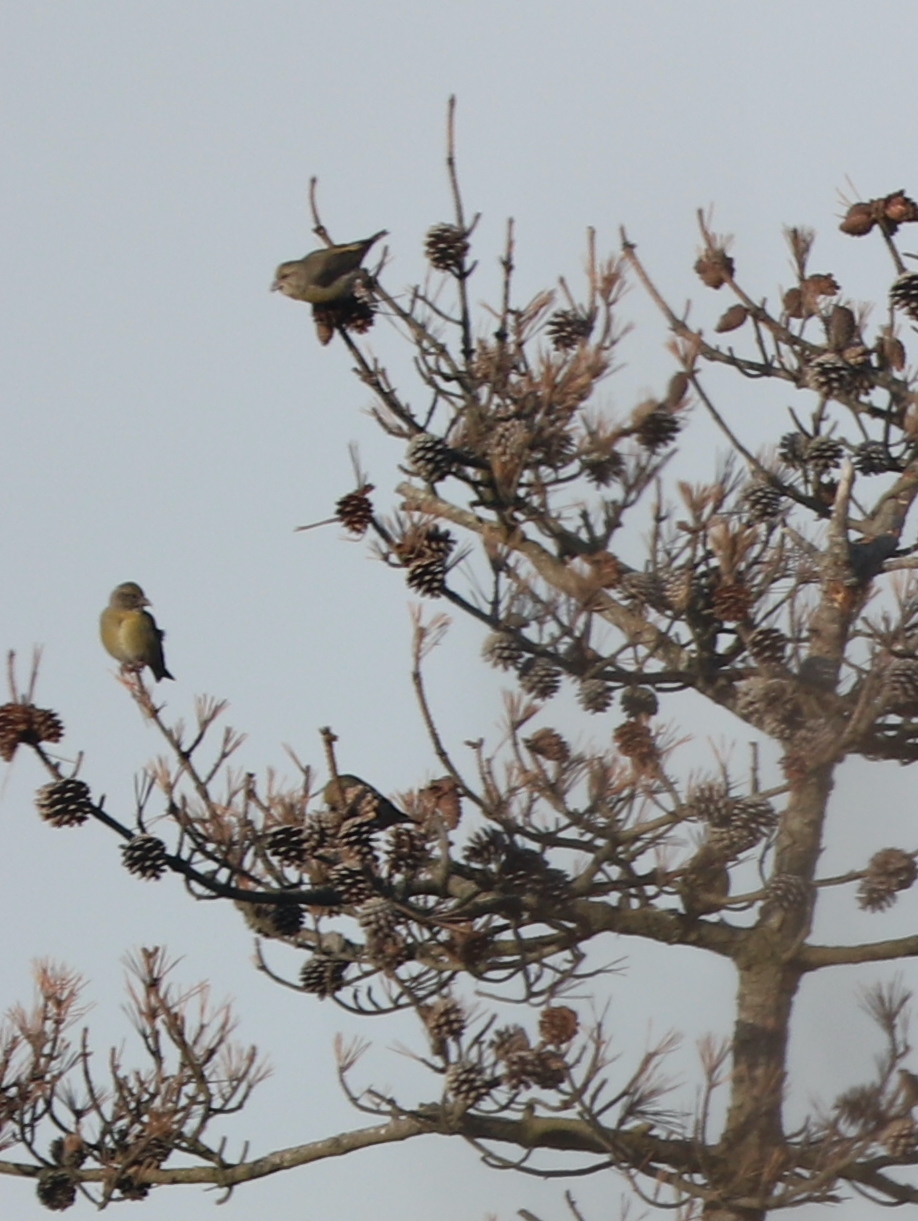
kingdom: Animalia
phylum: Chordata
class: Aves
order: Passeriformes
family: Fringillidae
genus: Loxia
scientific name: Loxia curvirostra
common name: Red crossbill
